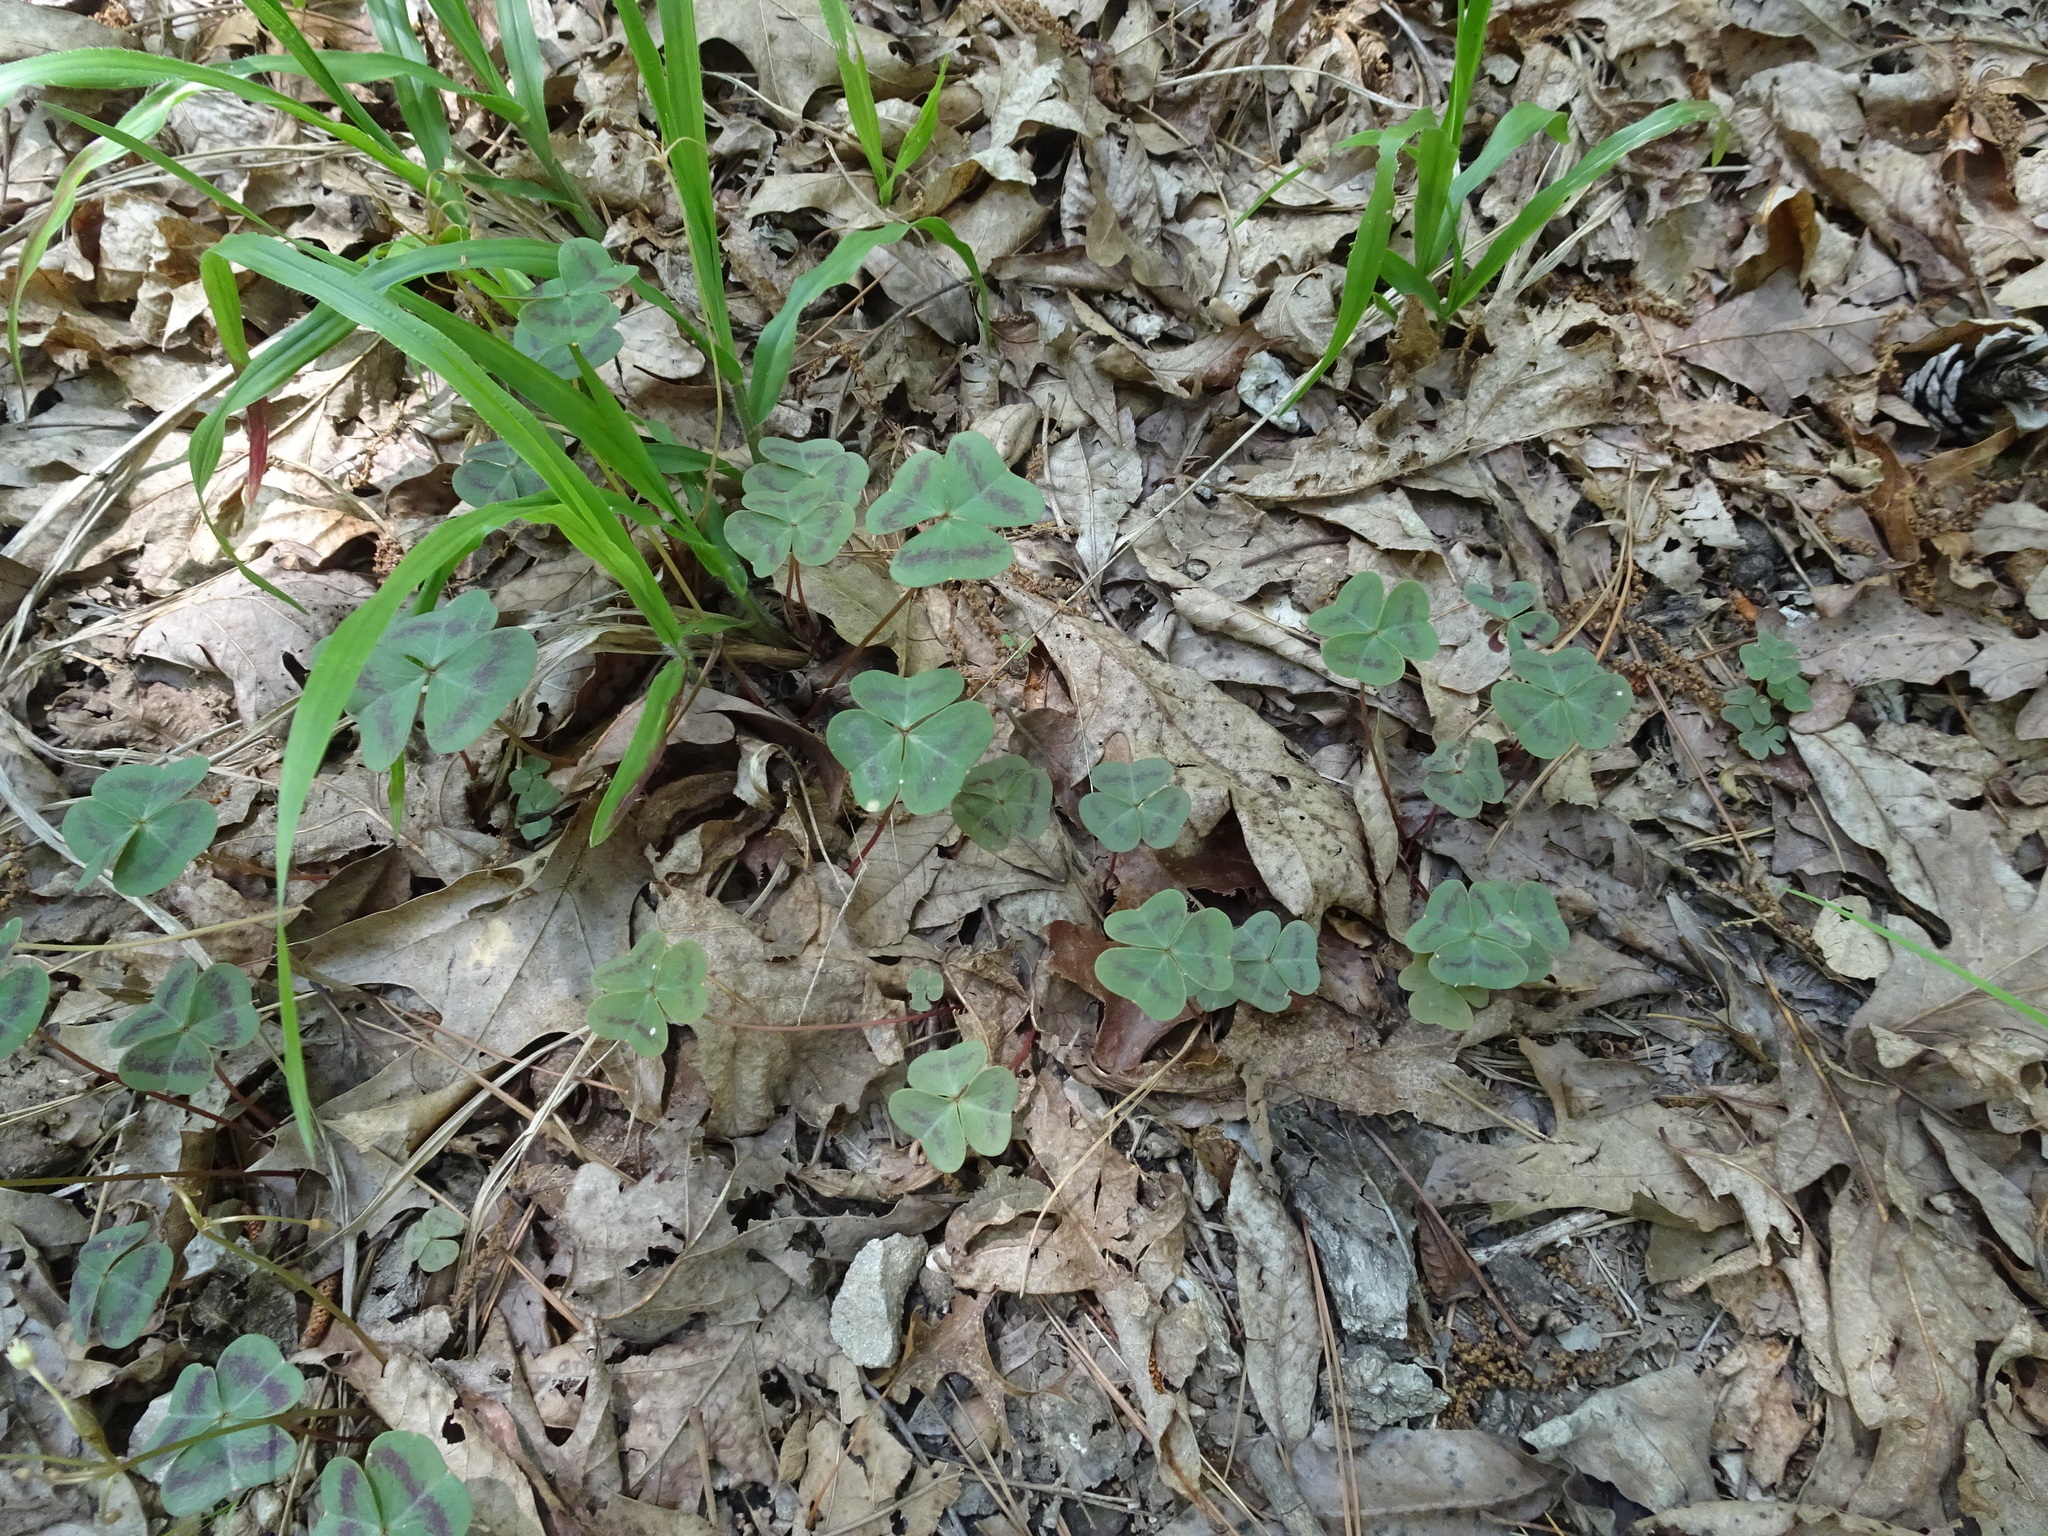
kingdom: Plantae
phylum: Tracheophyta
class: Magnoliopsida
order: Oxalidales
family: Oxalidaceae
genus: Oxalis
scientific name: Oxalis violacea
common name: Violet wood-sorrel
